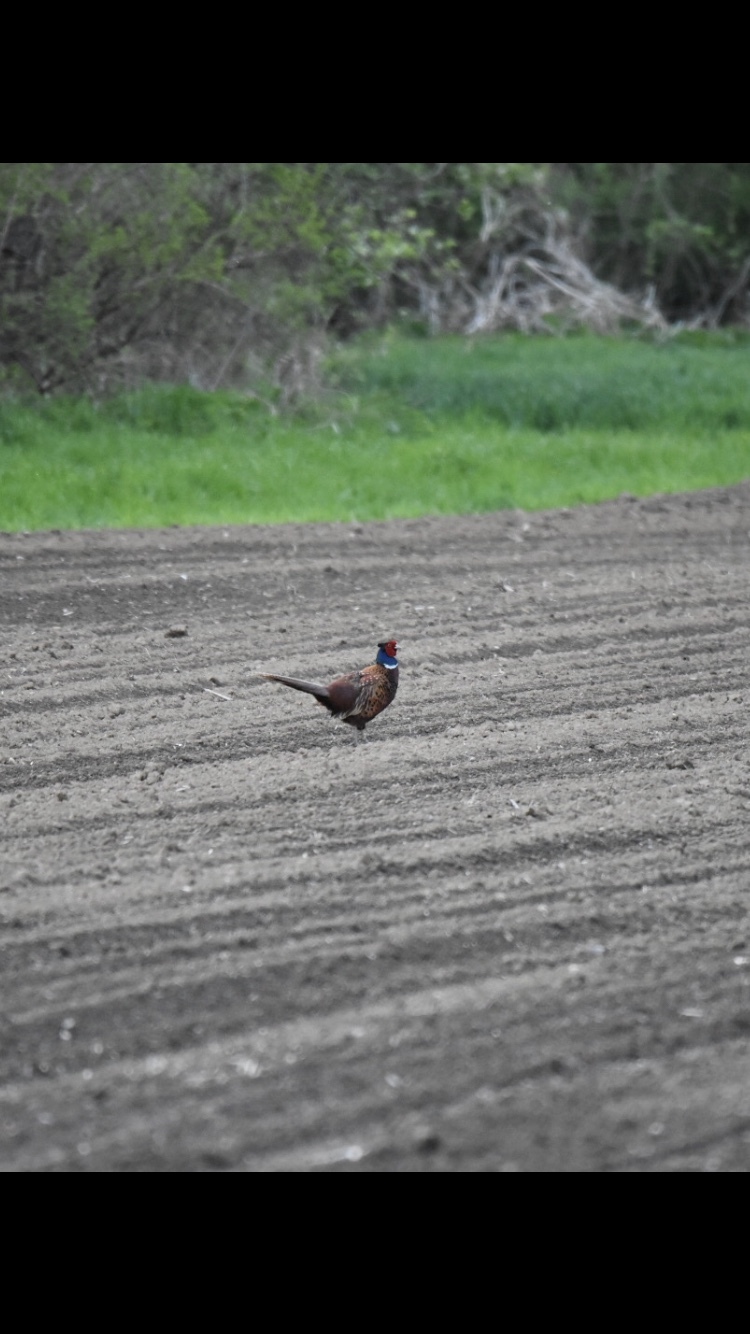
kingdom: Animalia
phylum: Chordata
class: Aves
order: Galliformes
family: Phasianidae
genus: Phasianus
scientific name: Phasianus colchicus
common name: Common pheasant
